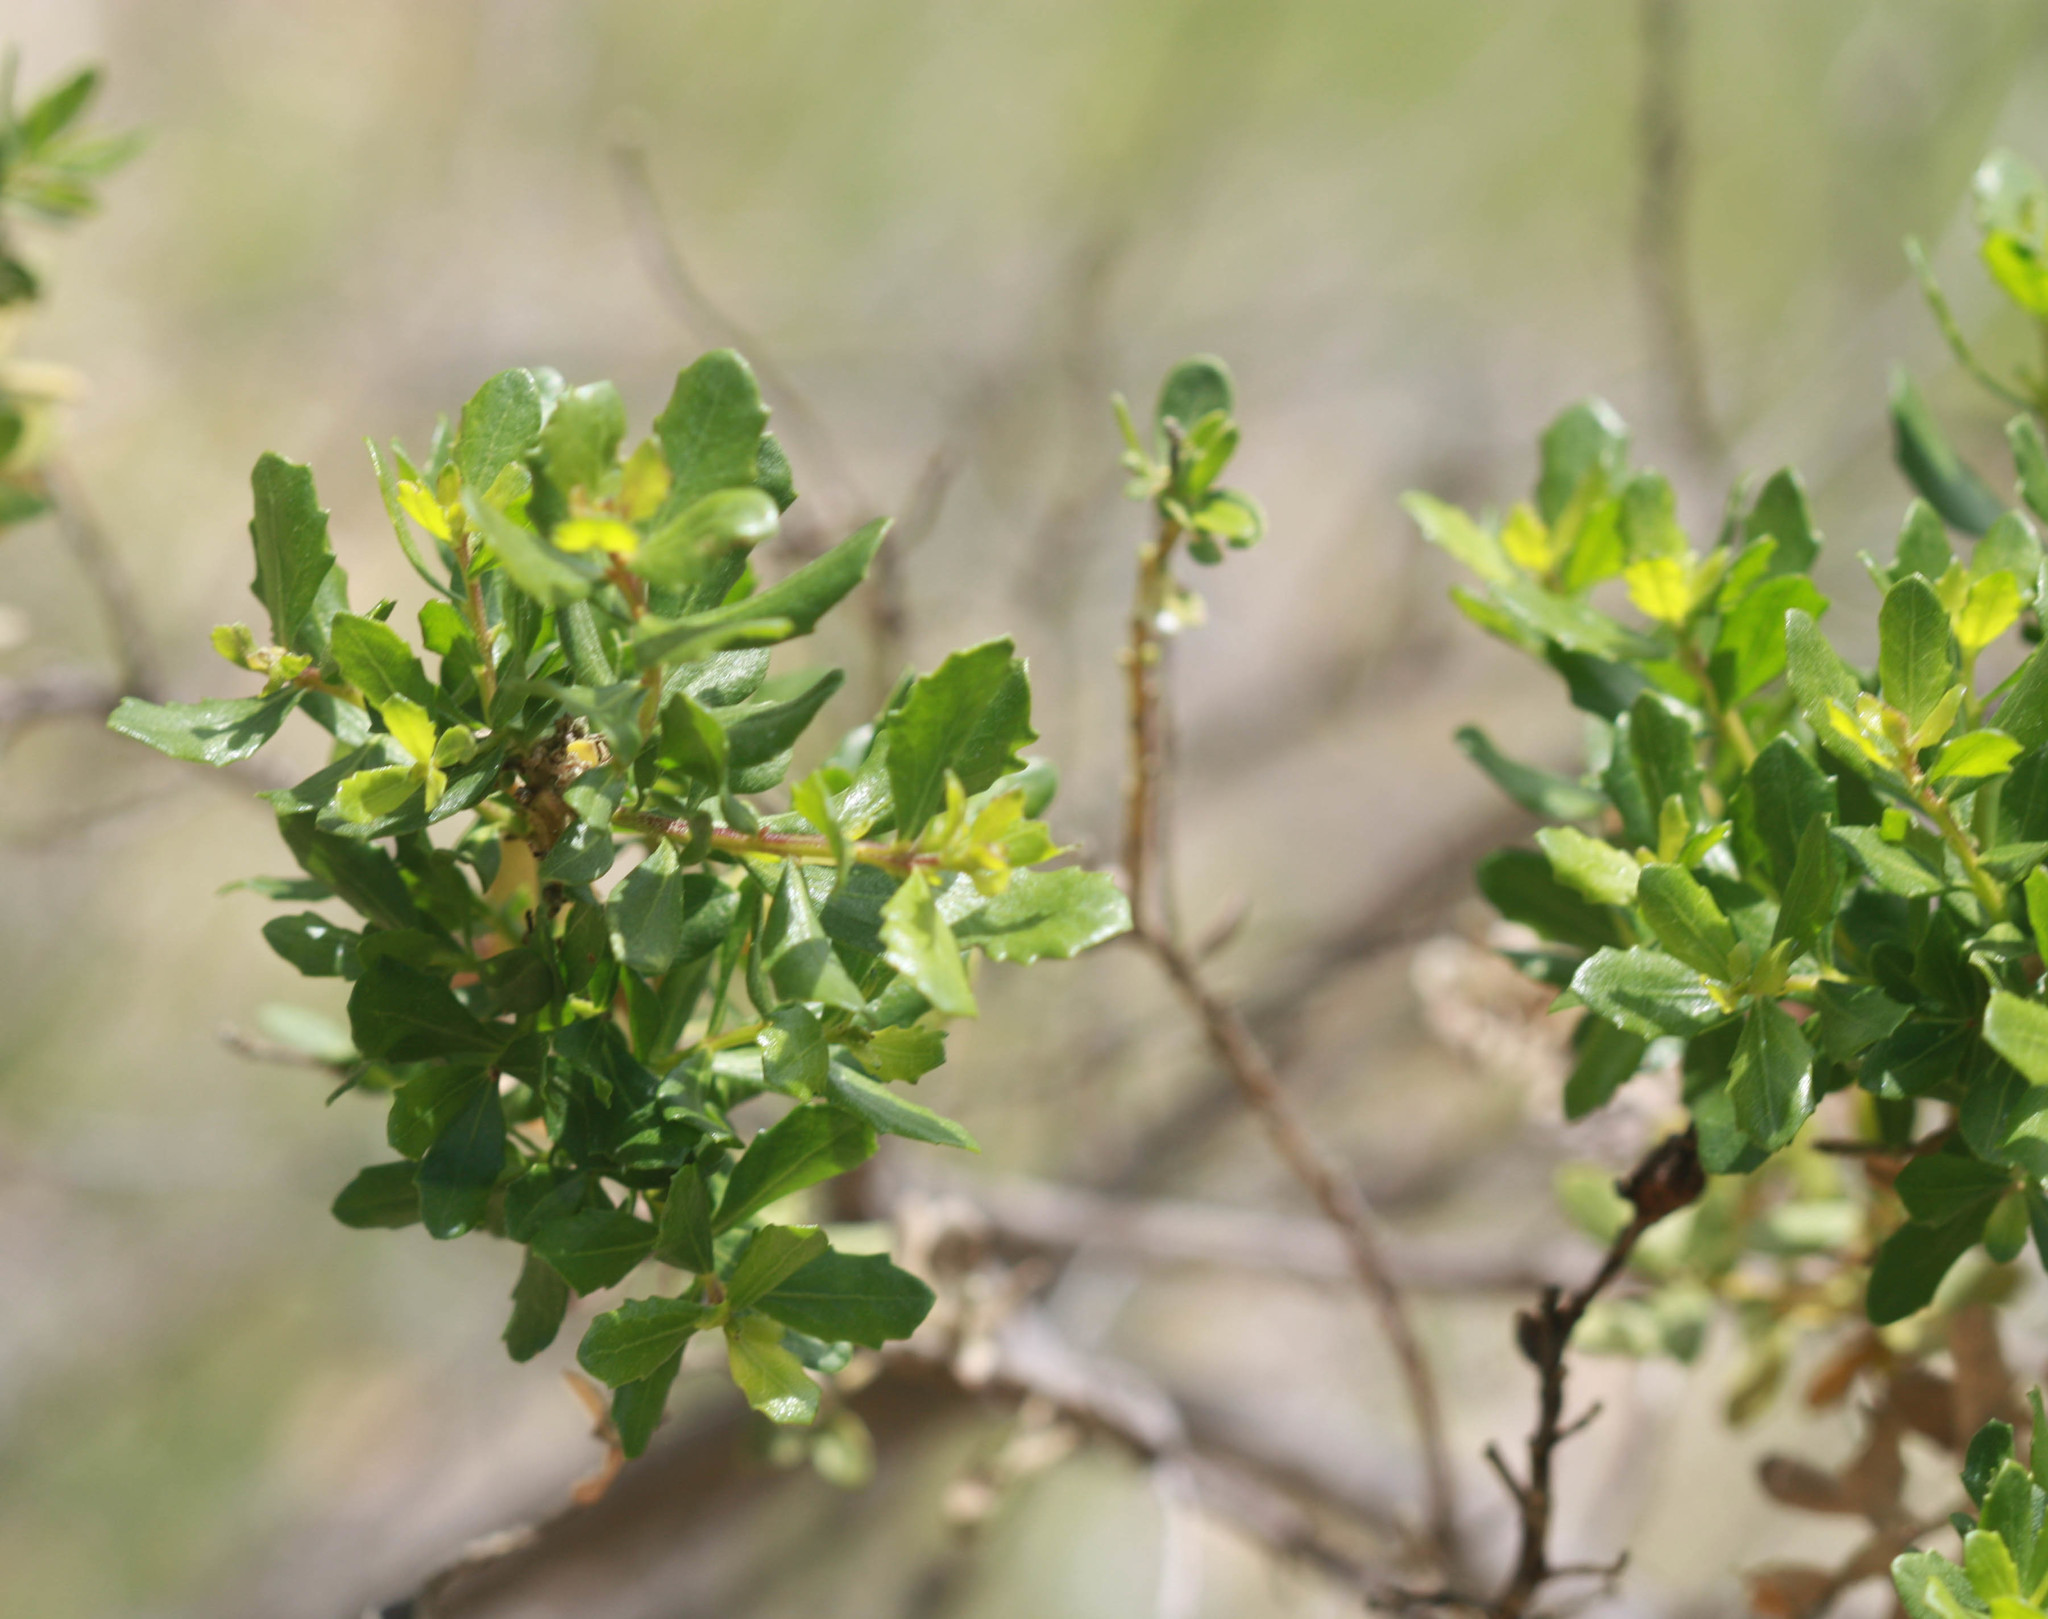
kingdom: Plantae
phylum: Tracheophyta
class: Magnoliopsida
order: Asterales
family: Asteraceae
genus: Baccharis
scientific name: Baccharis pilularis
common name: Coyotebrush
